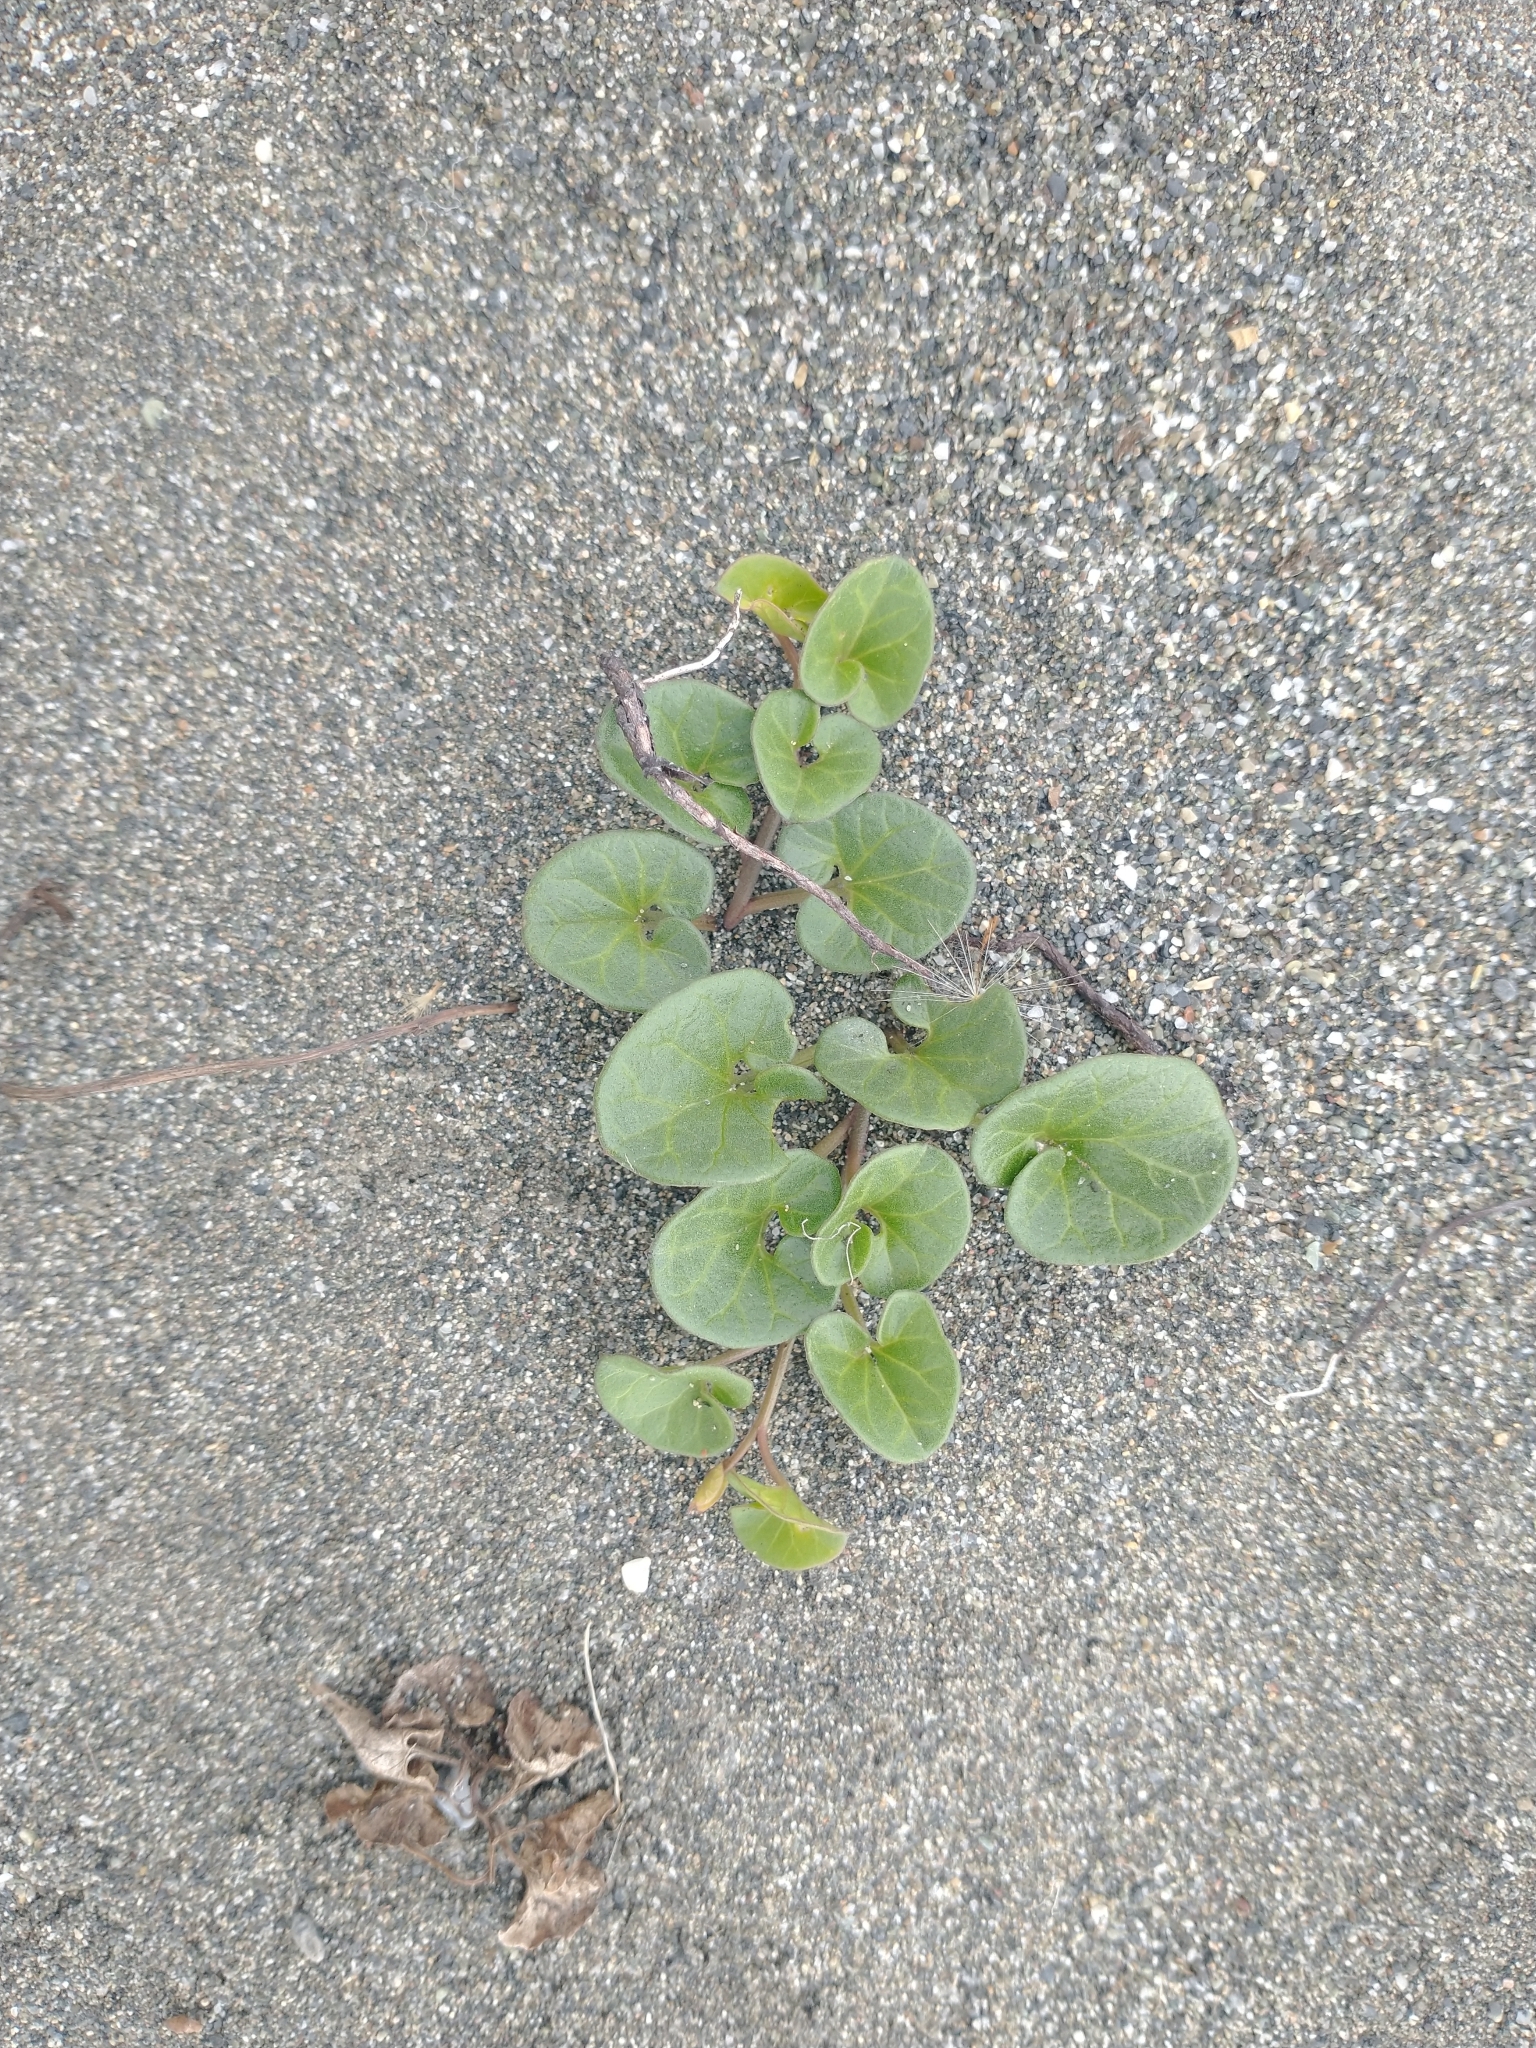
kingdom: Plantae
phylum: Tracheophyta
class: Magnoliopsida
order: Solanales
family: Convolvulaceae
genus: Calystegia
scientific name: Calystegia soldanella
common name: Sea bindweed
